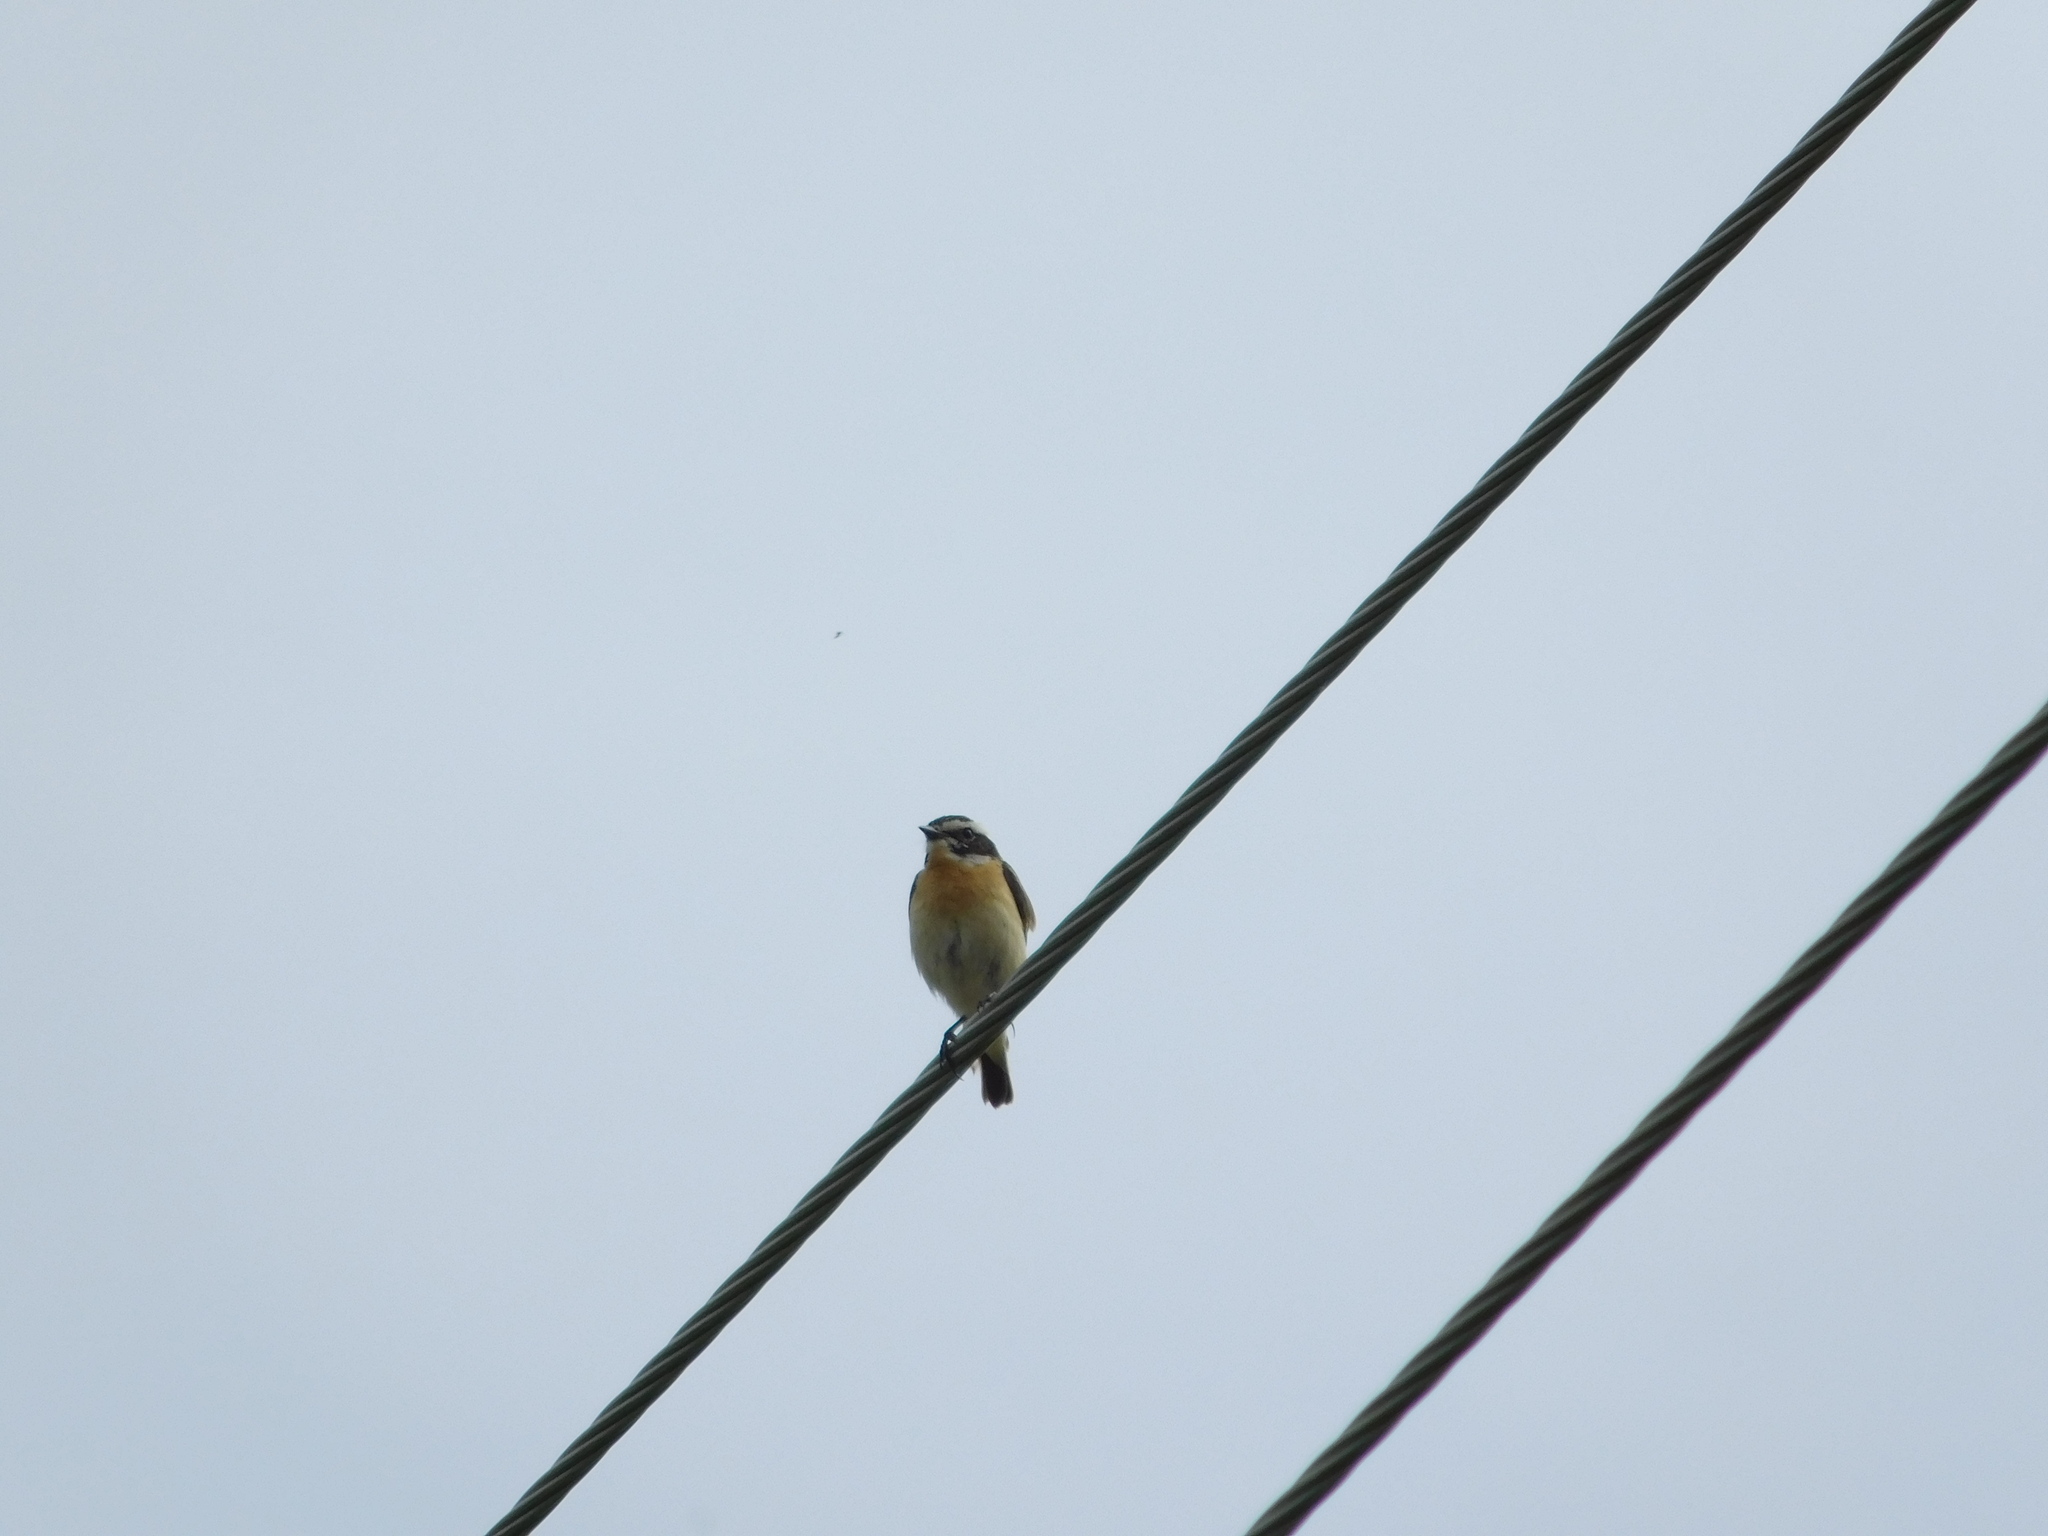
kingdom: Animalia
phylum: Chordata
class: Aves
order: Passeriformes
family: Muscicapidae
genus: Saxicola
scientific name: Saxicola rubetra
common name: Whinchat
